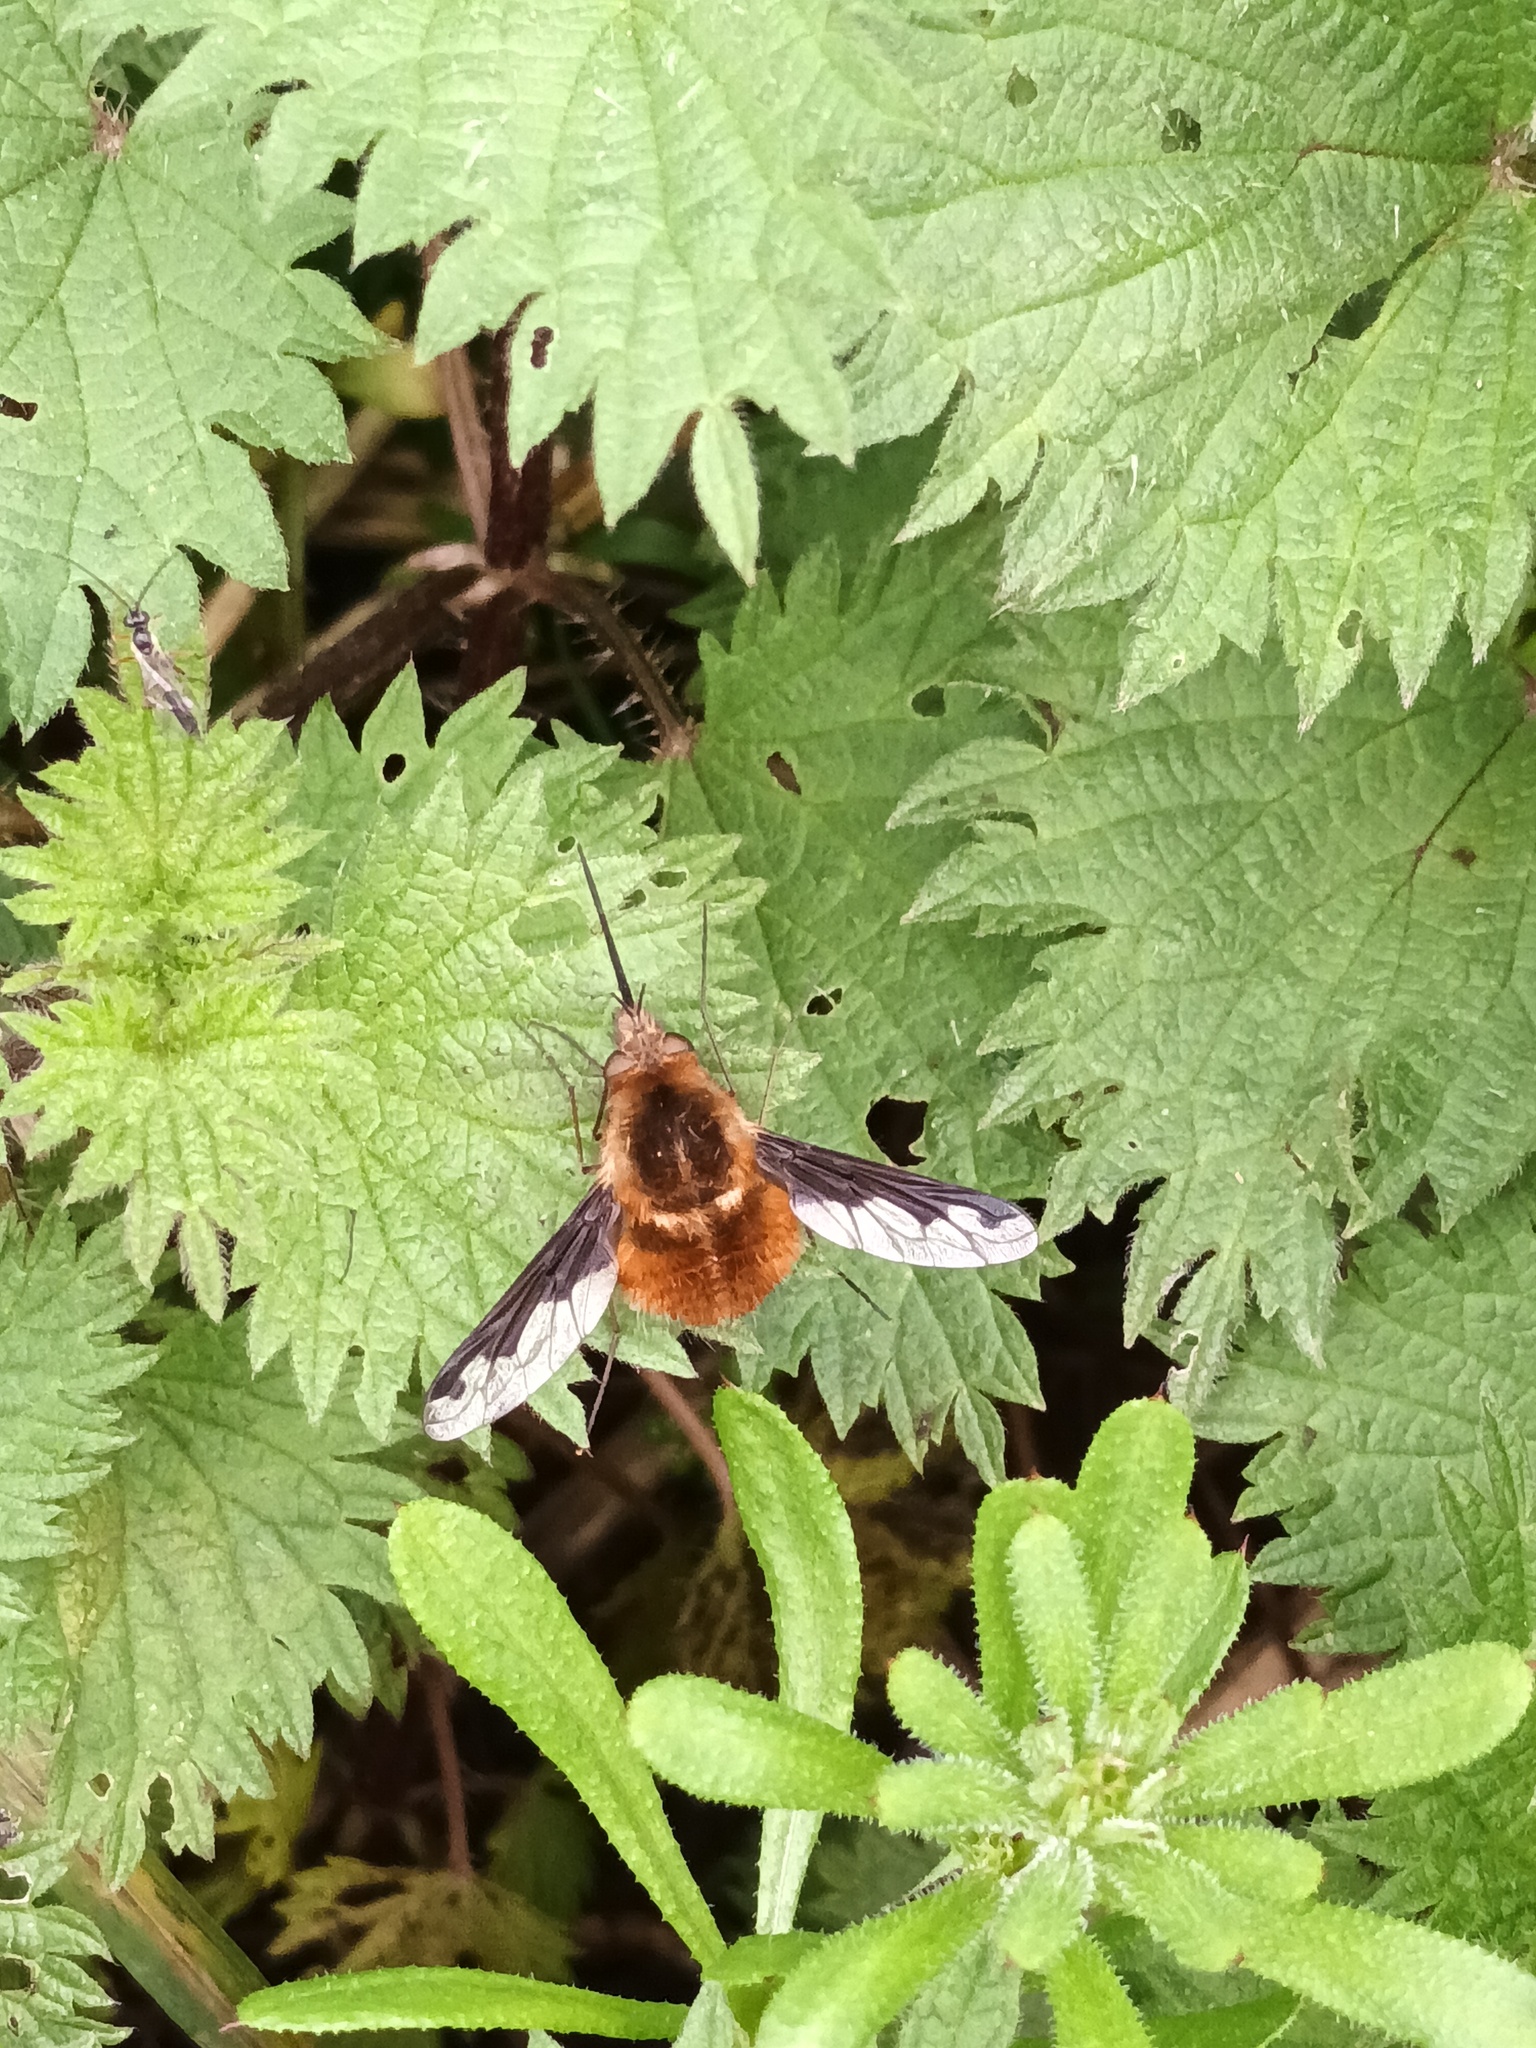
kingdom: Animalia
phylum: Arthropoda
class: Insecta
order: Diptera
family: Bombyliidae
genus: Bombylius
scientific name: Bombylius major
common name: Bee fly
